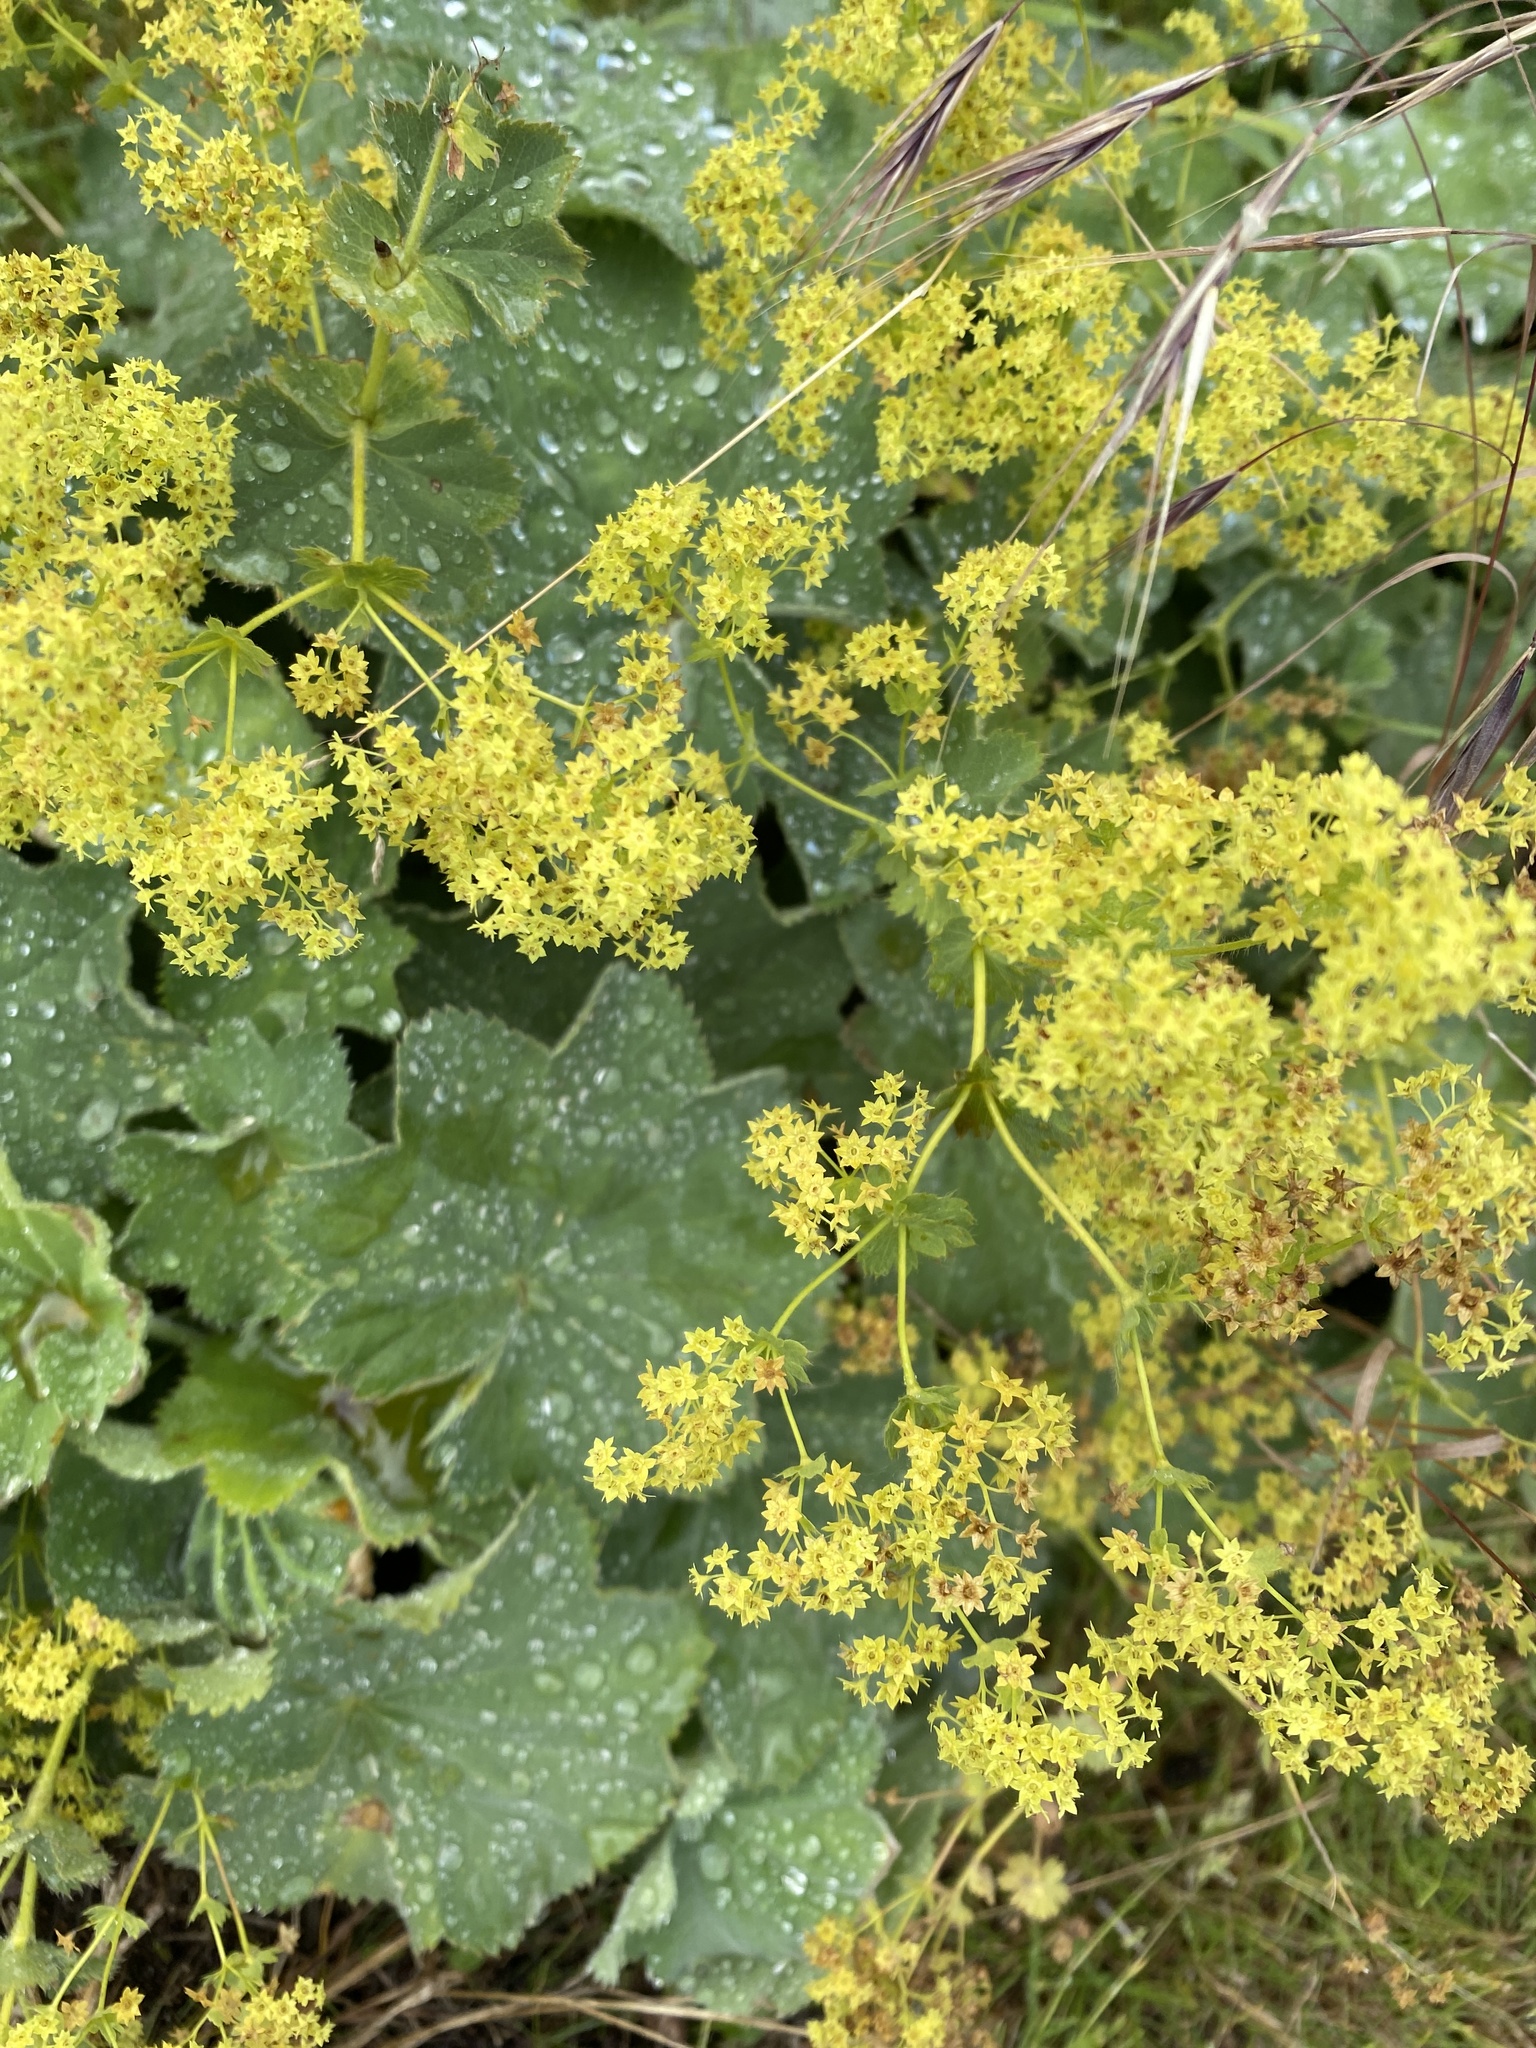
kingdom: Plantae
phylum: Tracheophyta
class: Magnoliopsida
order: Rosales
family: Rosaceae
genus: Alchemilla
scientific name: Alchemilla mollis
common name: Lady's-mantle
